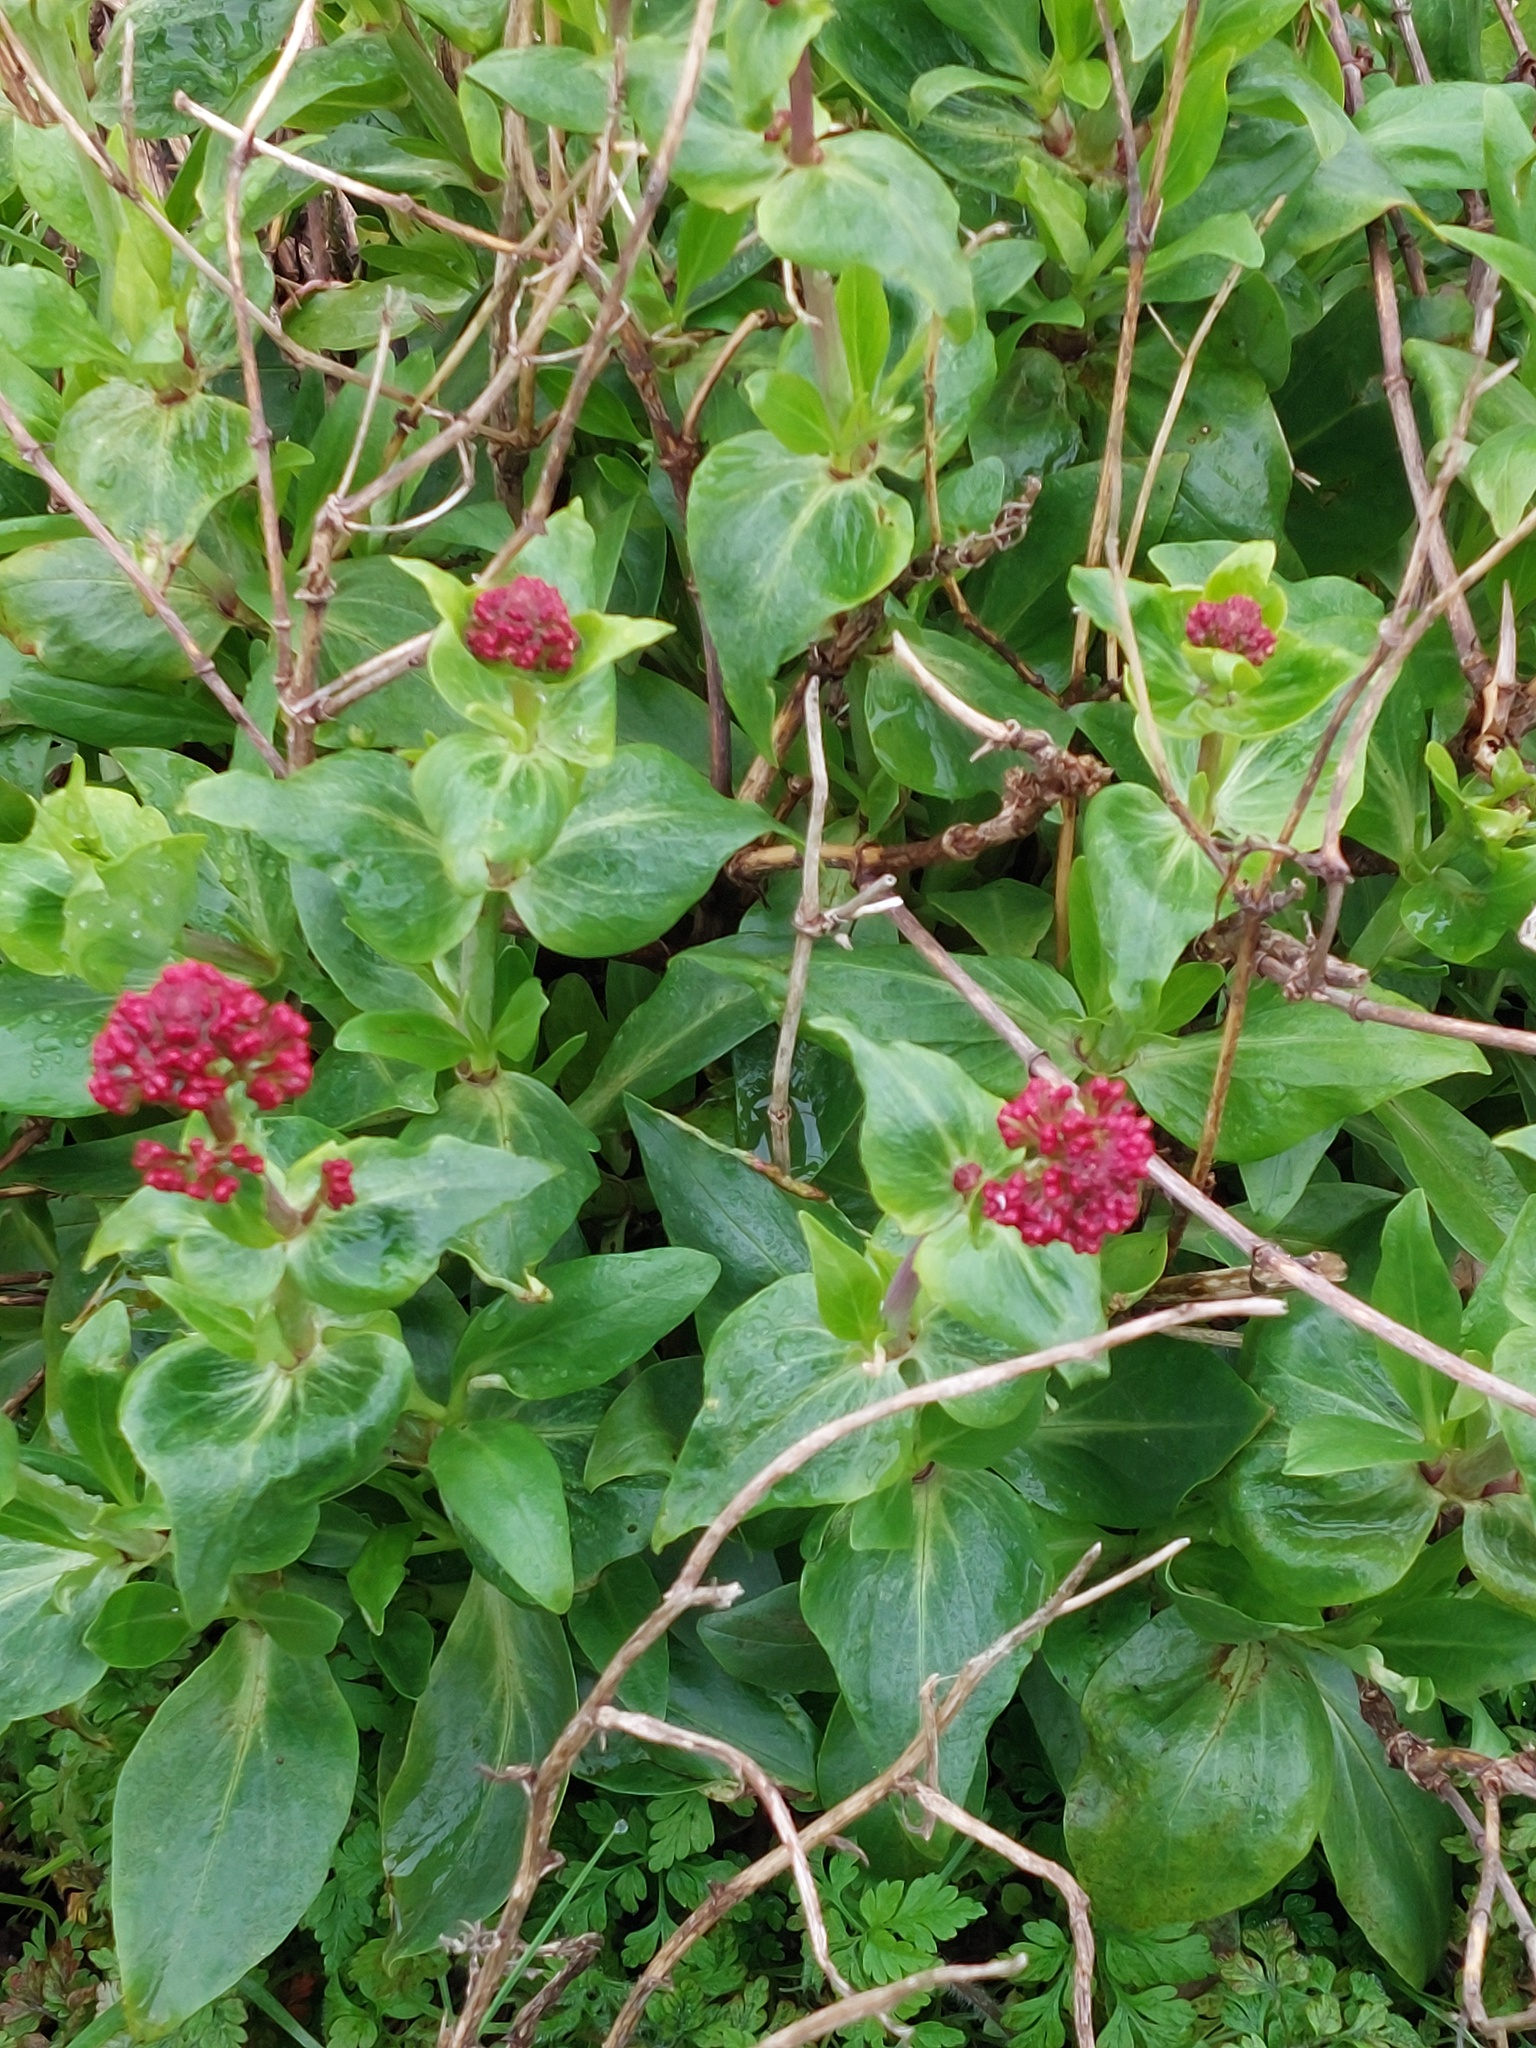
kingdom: Plantae
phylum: Tracheophyta
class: Magnoliopsida
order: Dipsacales
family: Caprifoliaceae
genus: Centranthus
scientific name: Centranthus ruber
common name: Red valerian
